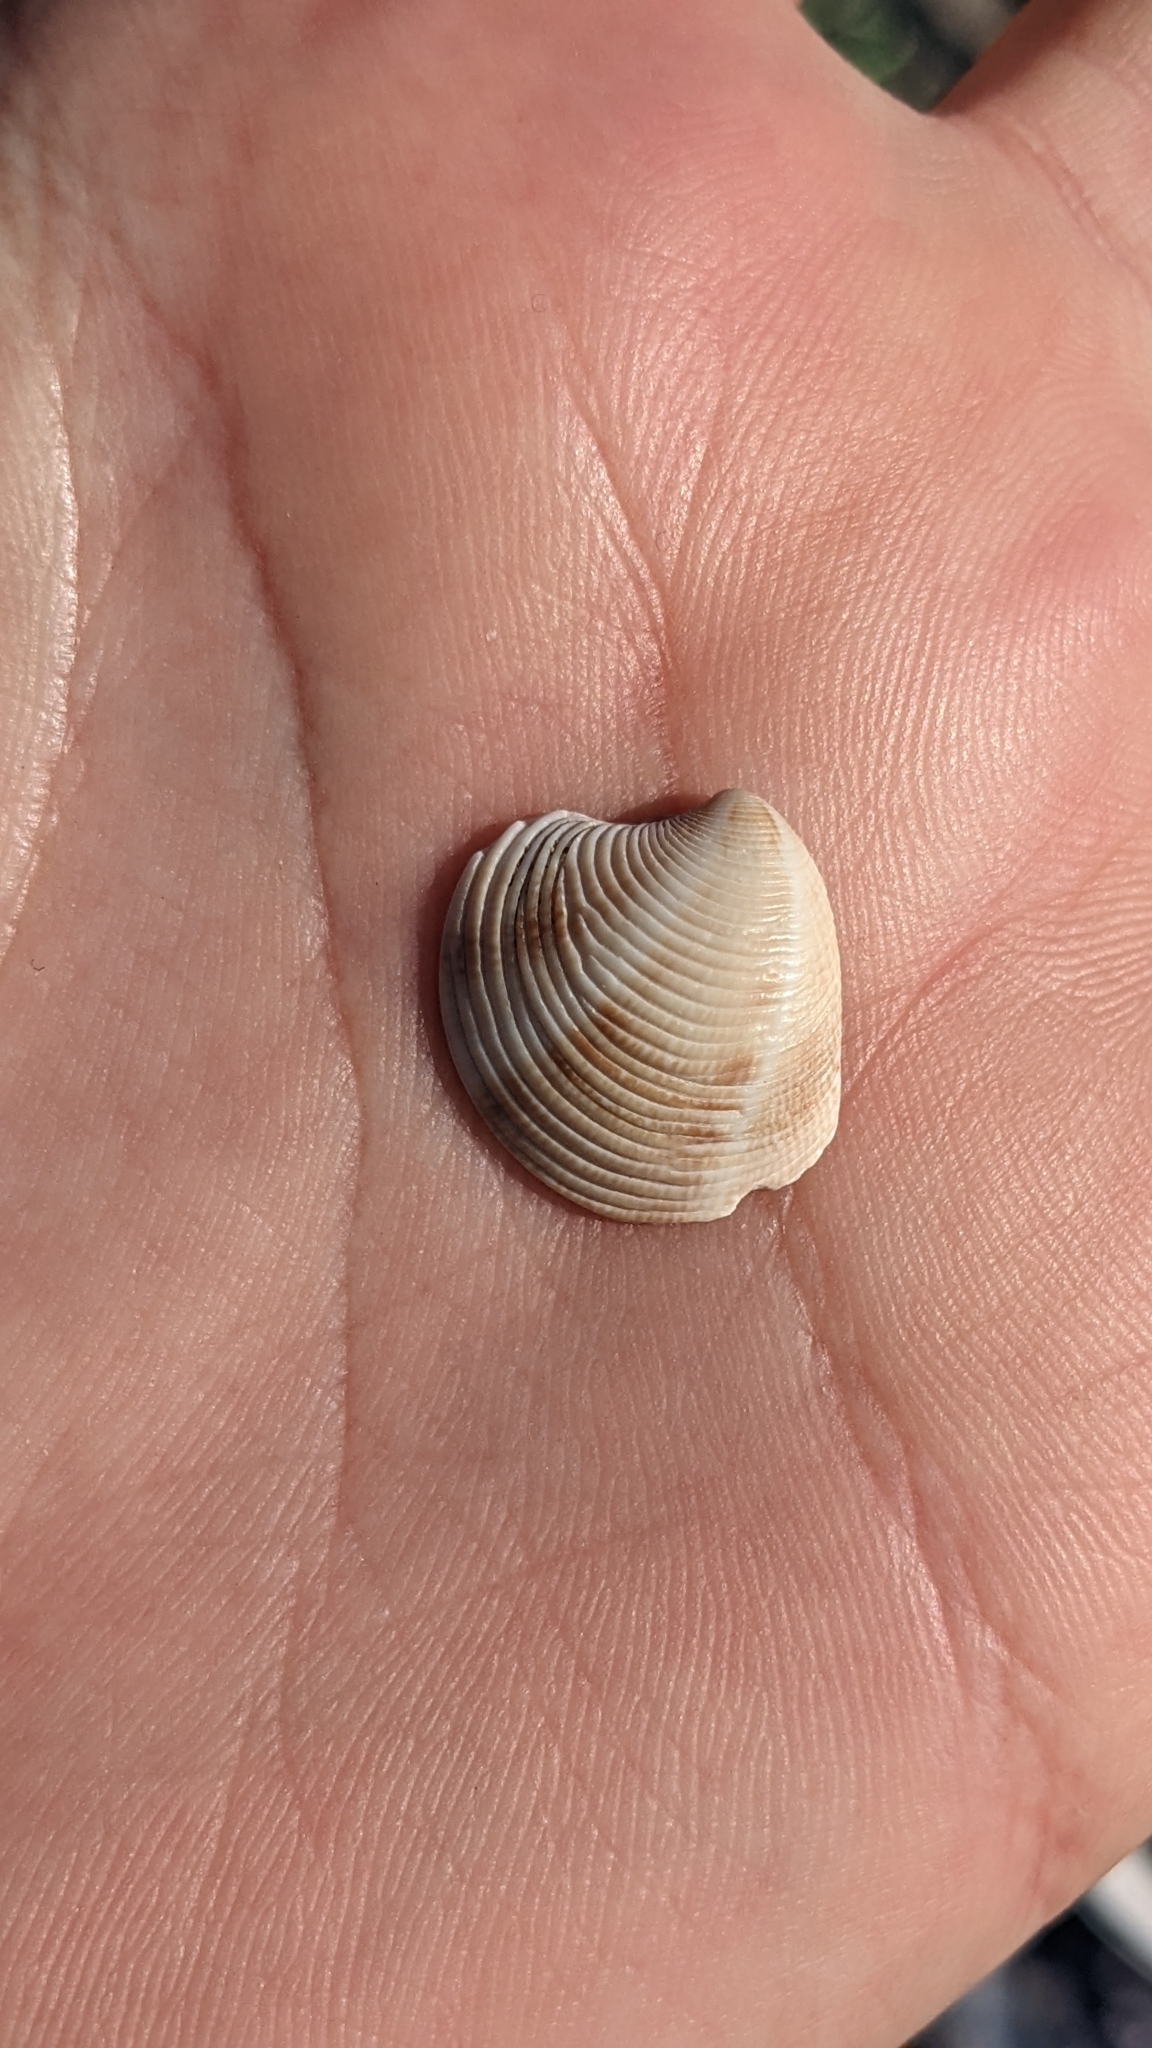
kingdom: Animalia
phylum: Mollusca
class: Bivalvia
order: Venerida
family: Veneridae
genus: Chamelea
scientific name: Chamelea gallina
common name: Chicken venus
